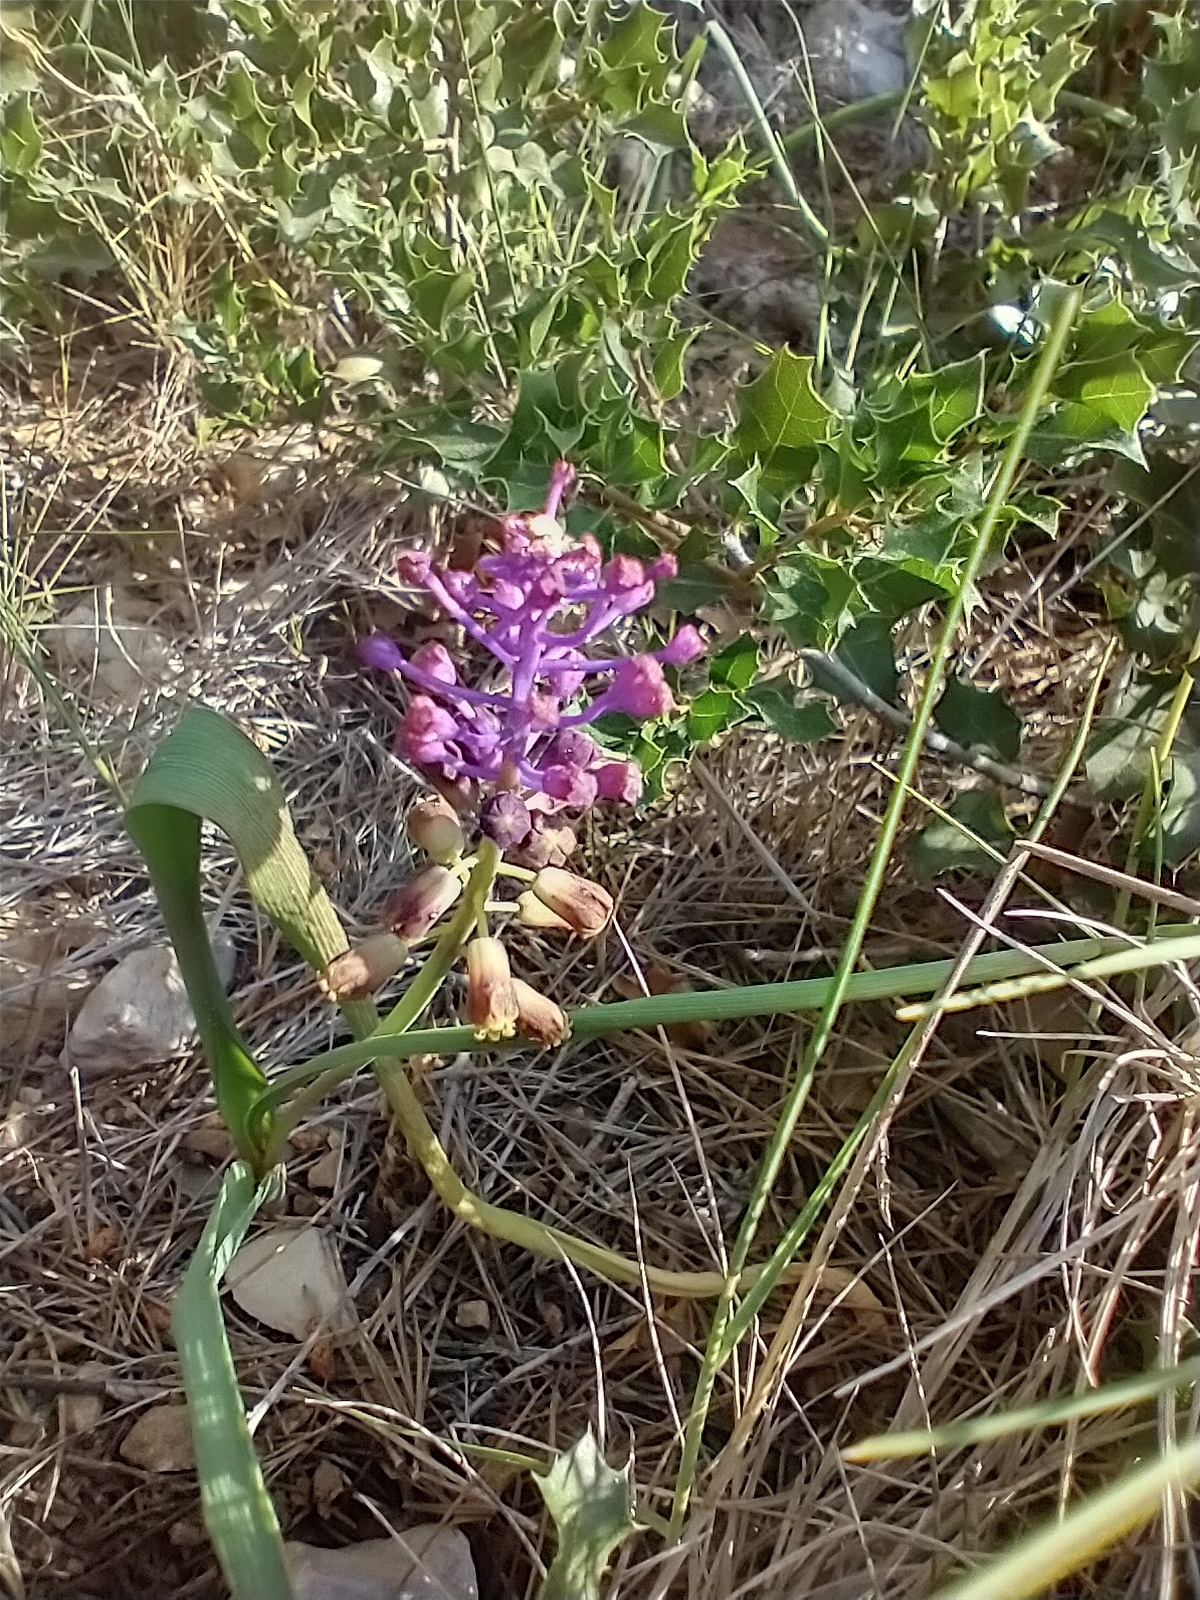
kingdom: Plantae
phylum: Tracheophyta
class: Liliopsida
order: Asparagales
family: Asparagaceae
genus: Muscari
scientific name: Muscari comosum
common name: Tassel hyacinth
